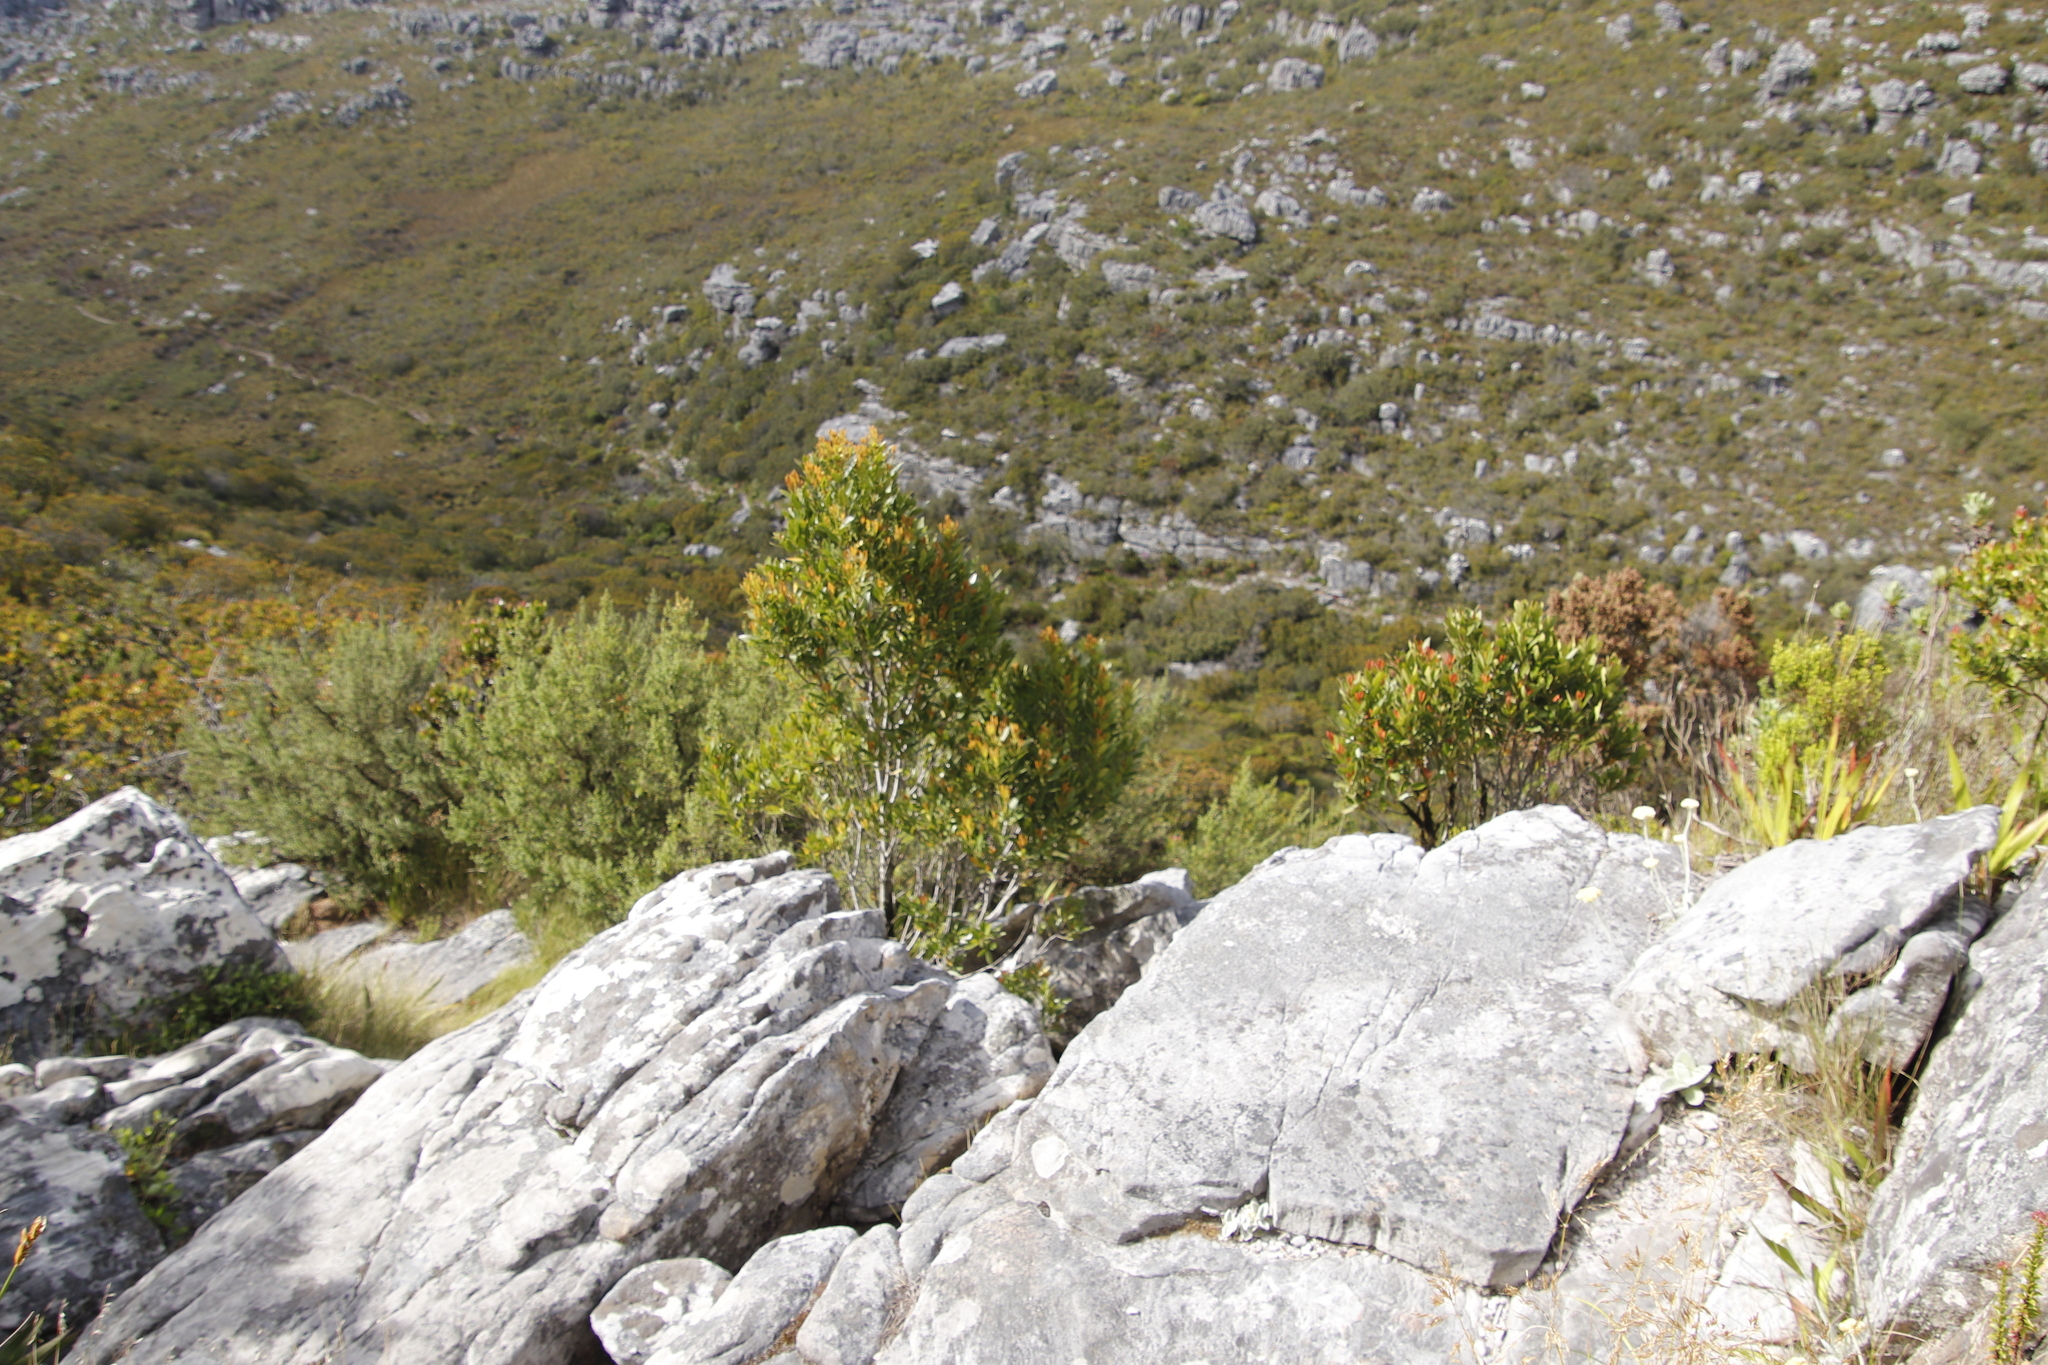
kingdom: Plantae
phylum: Tracheophyta
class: Magnoliopsida
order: Celastrales
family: Celastraceae
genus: Elaeodendron
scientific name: Elaeodendron schinoides
